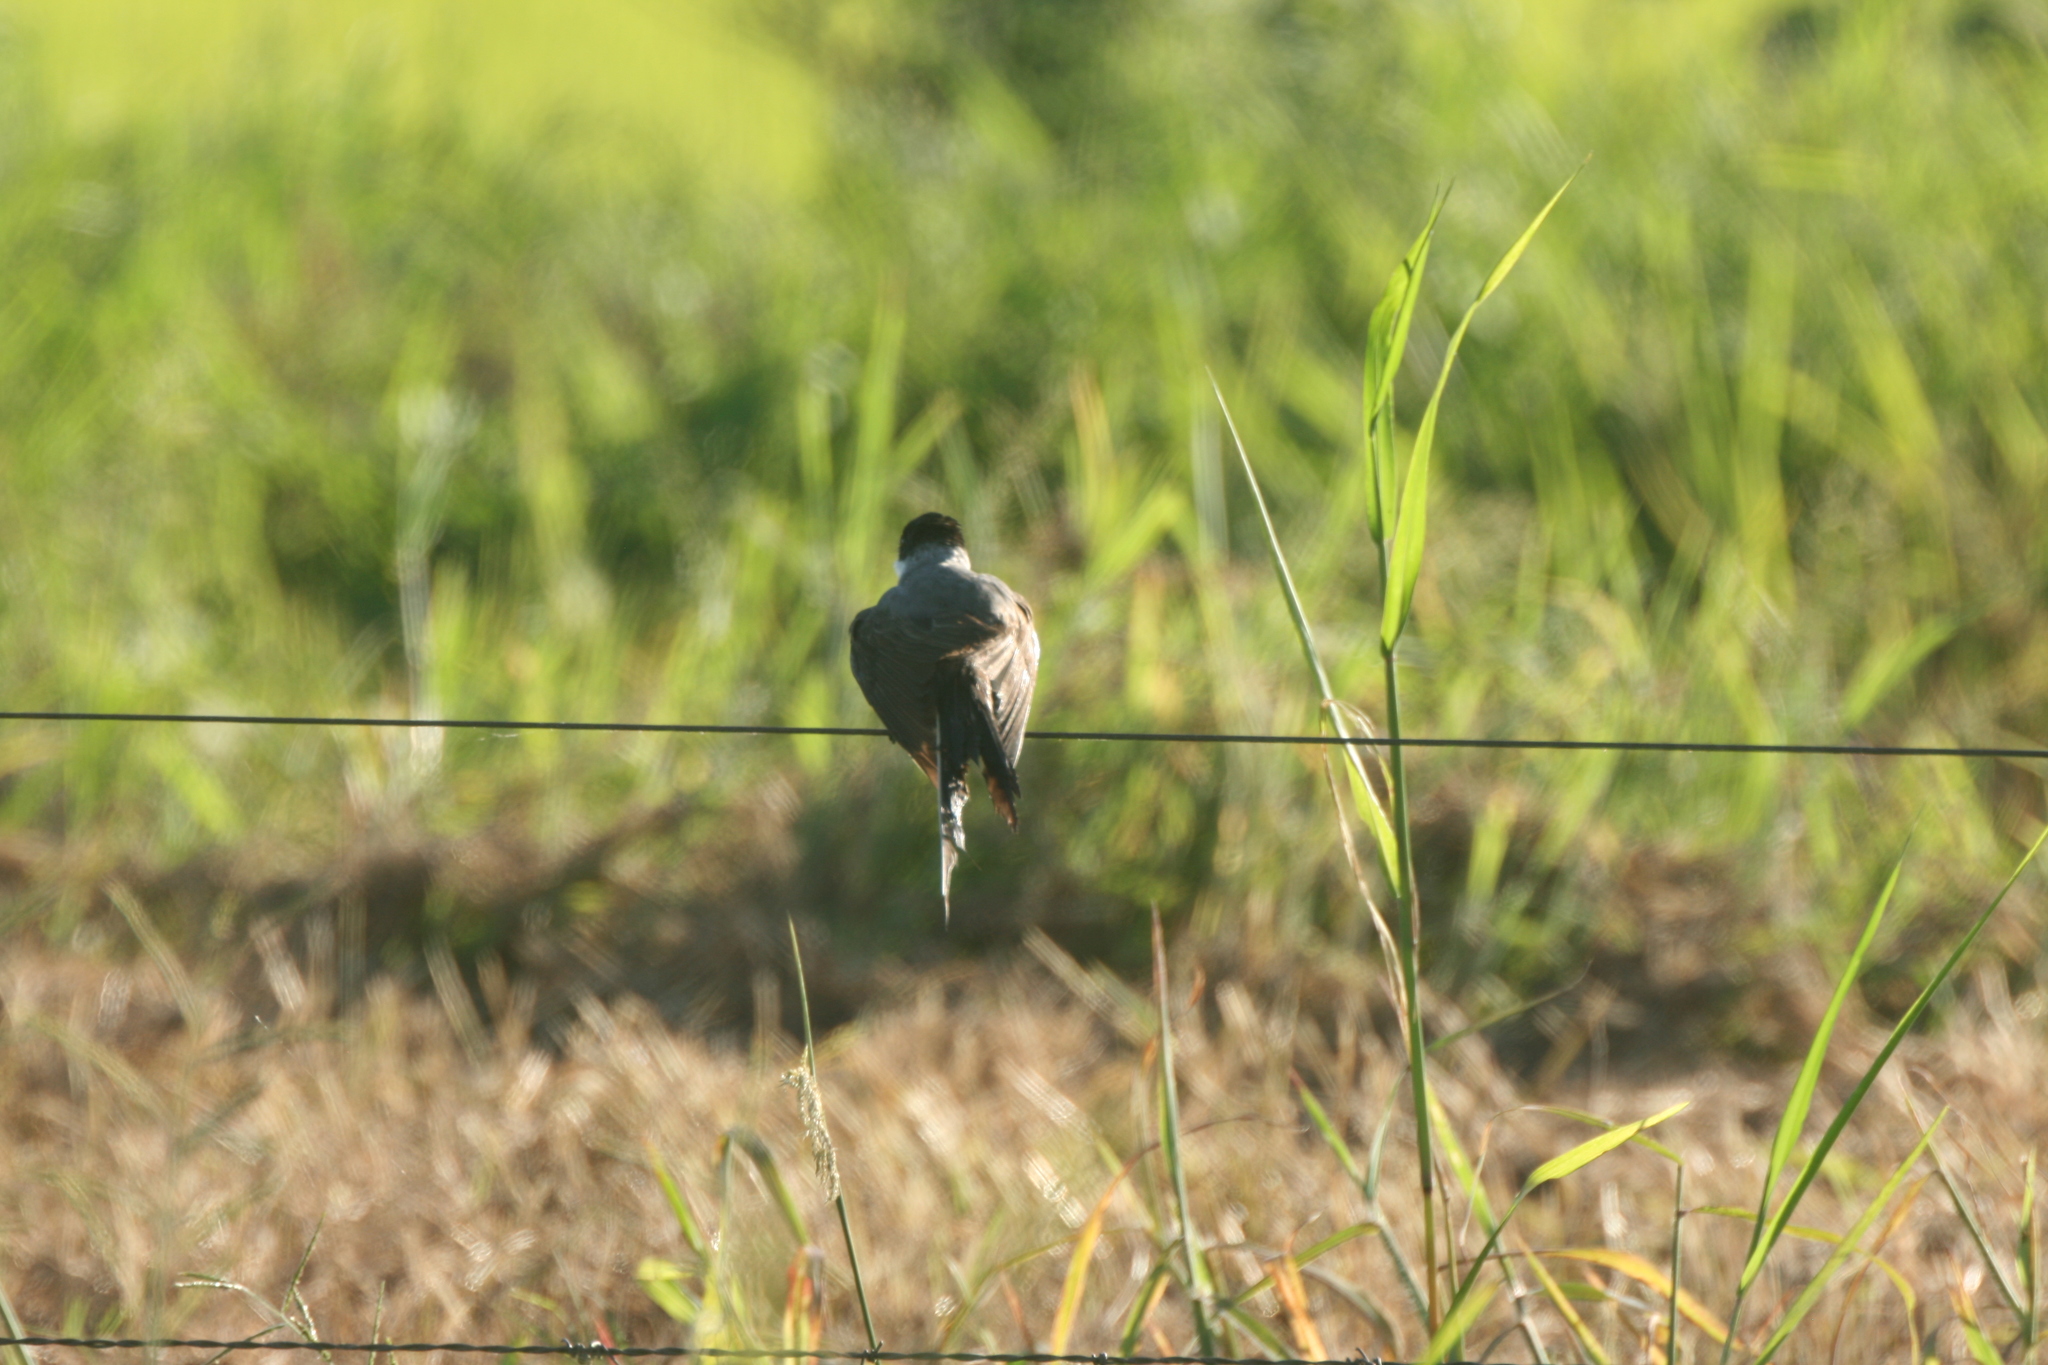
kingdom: Animalia
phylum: Chordata
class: Aves
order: Passeriformes
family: Tyrannidae
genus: Tyrannus
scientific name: Tyrannus savana
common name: Fork-tailed flycatcher
